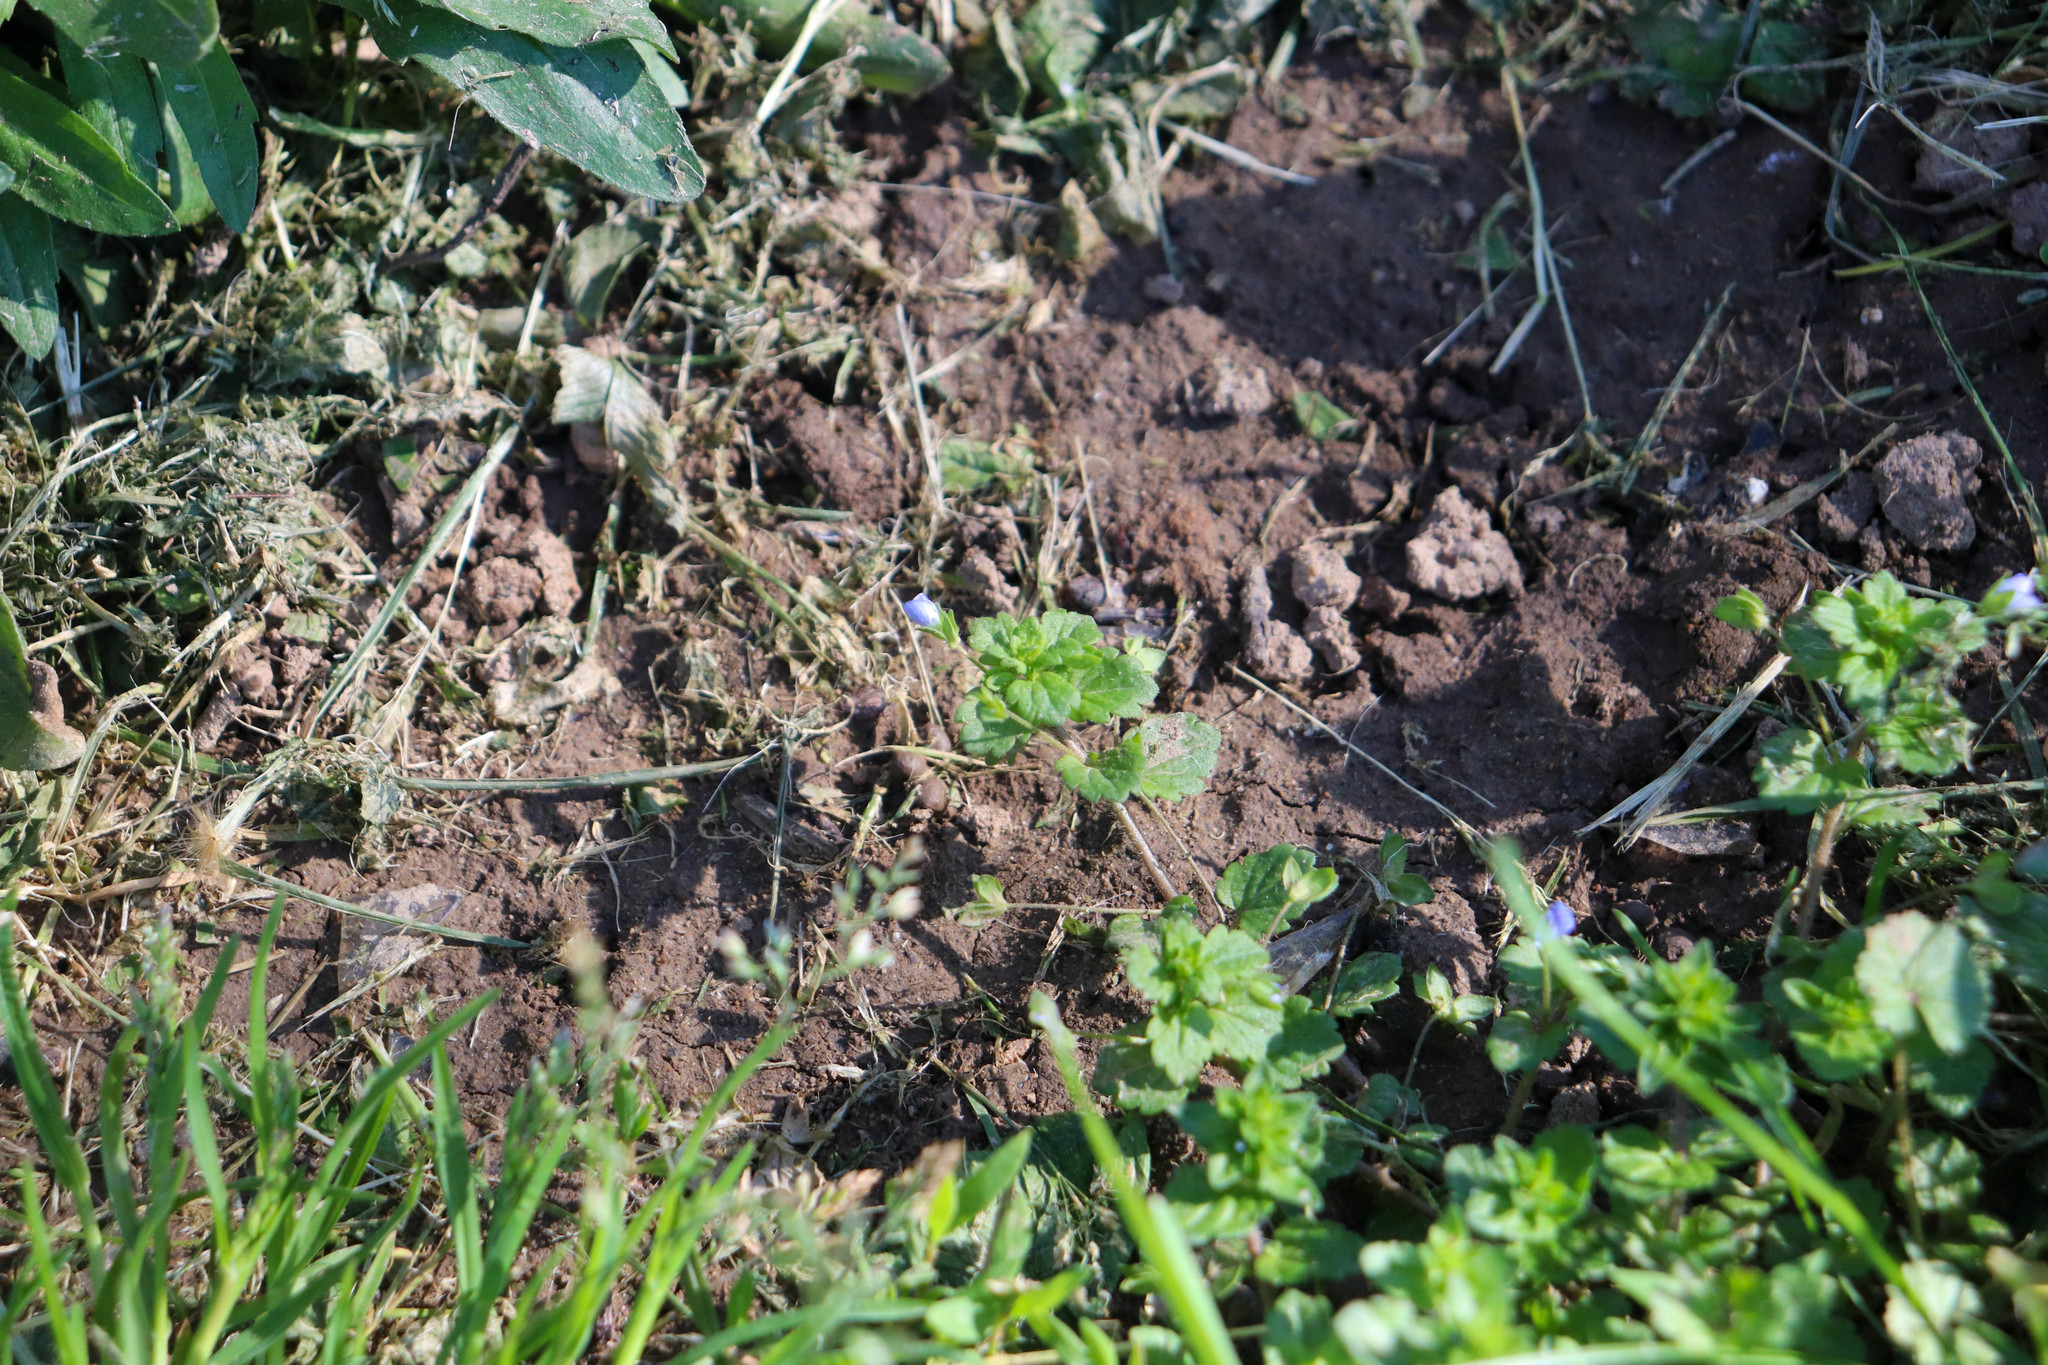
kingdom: Plantae
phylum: Tracheophyta
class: Magnoliopsida
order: Lamiales
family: Plantaginaceae
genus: Veronica
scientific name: Veronica persica
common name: Common field-speedwell
